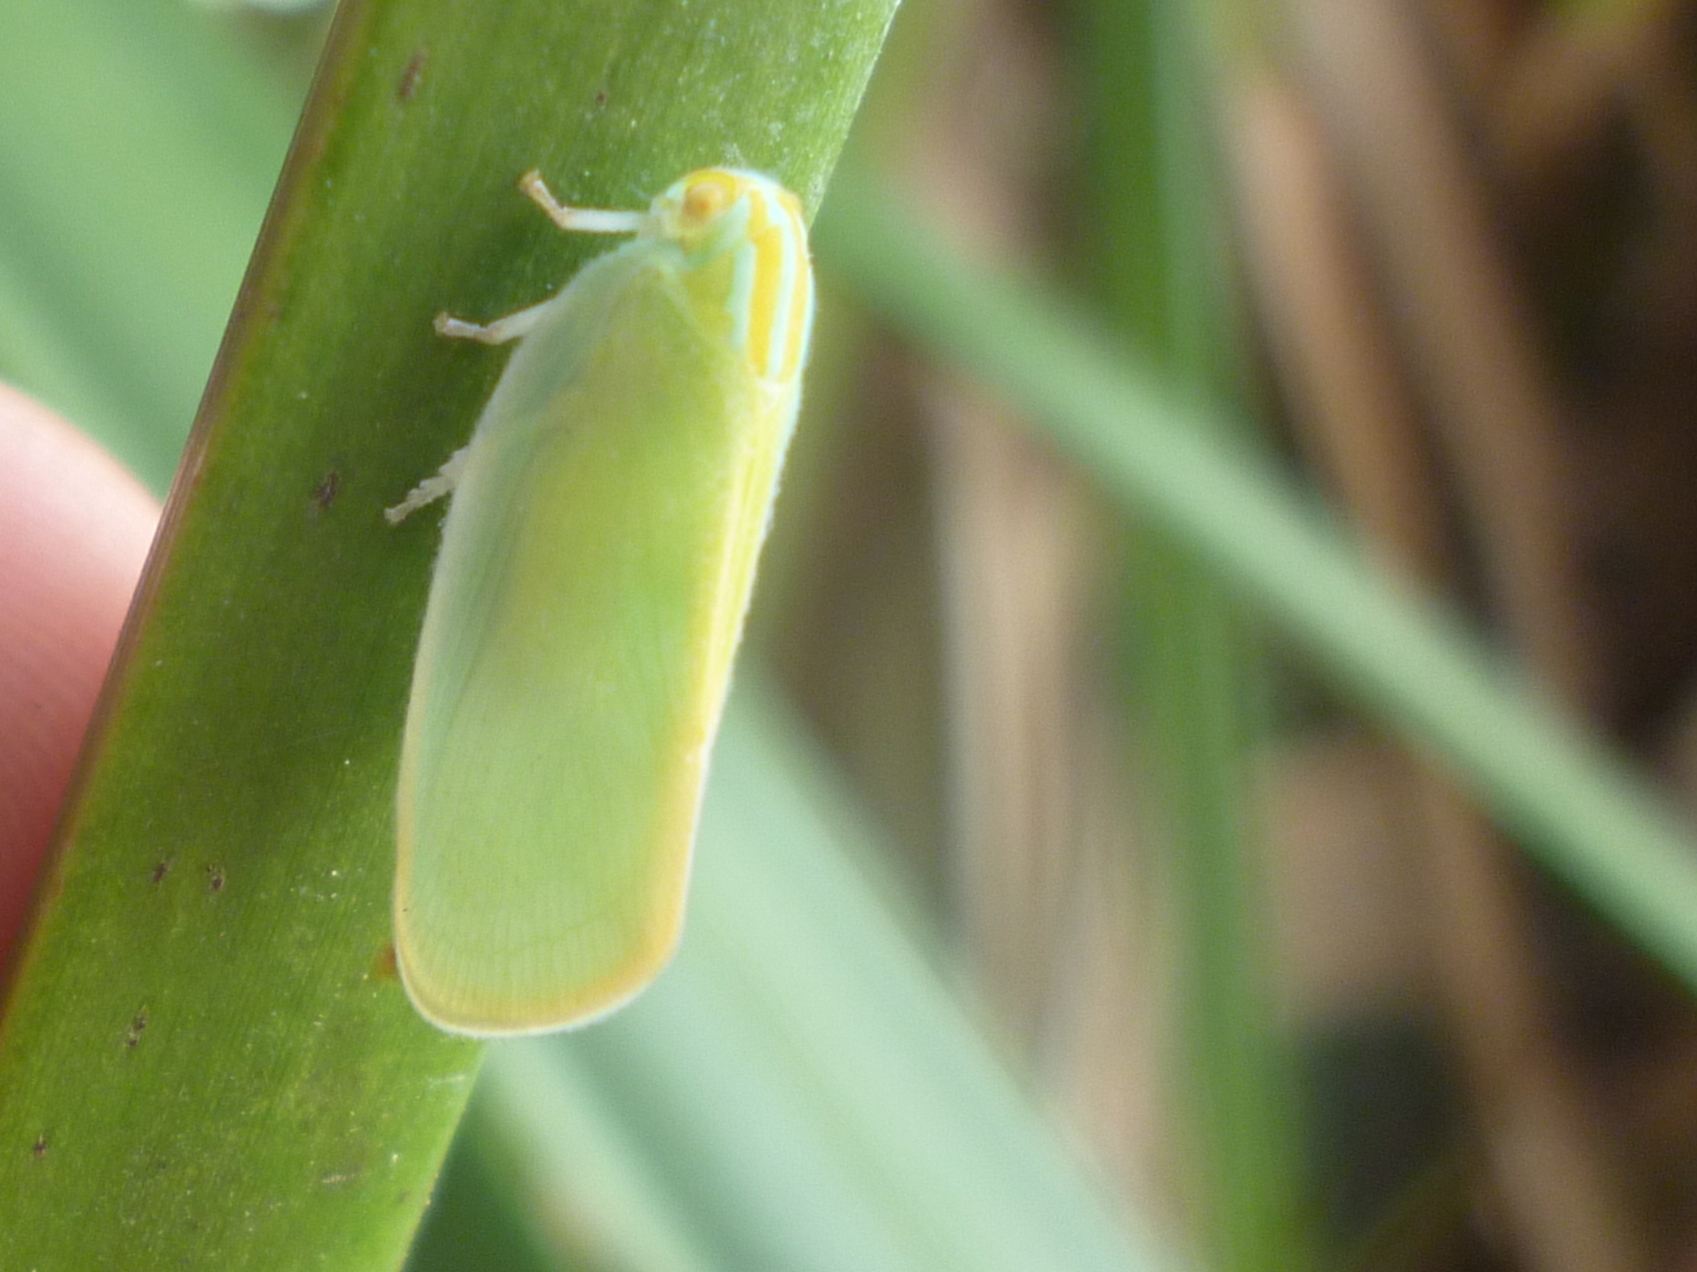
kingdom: Animalia
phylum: Arthropoda
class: Insecta
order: Hemiptera
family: Flatidae
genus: Ormenaria
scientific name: Ormenaria rufifascia
